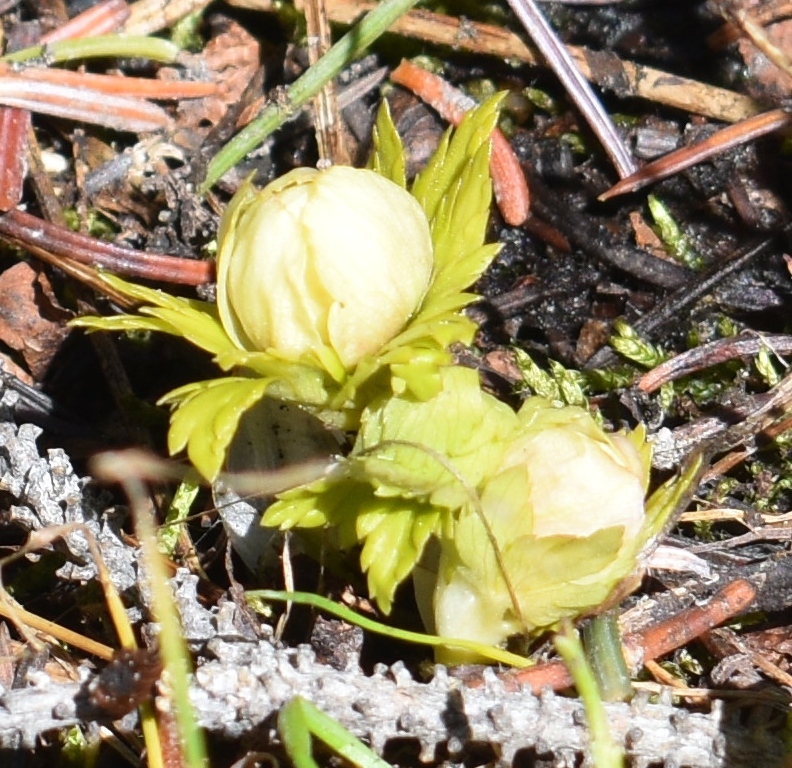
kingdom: Plantae
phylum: Tracheophyta
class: Magnoliopsida
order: Ranunculales
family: Ranunculaceae
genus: Trollius
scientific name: Trollius laxus
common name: American globeflower
